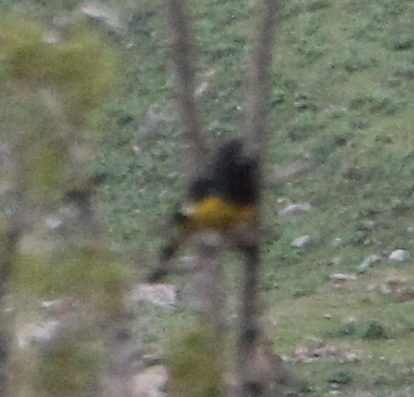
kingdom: Animalia
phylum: Chordata
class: Aves
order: Passeriformes
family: Fringillidae
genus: Mycerobas
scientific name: Mycerobas carnipes
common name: White-winged grosbeak
